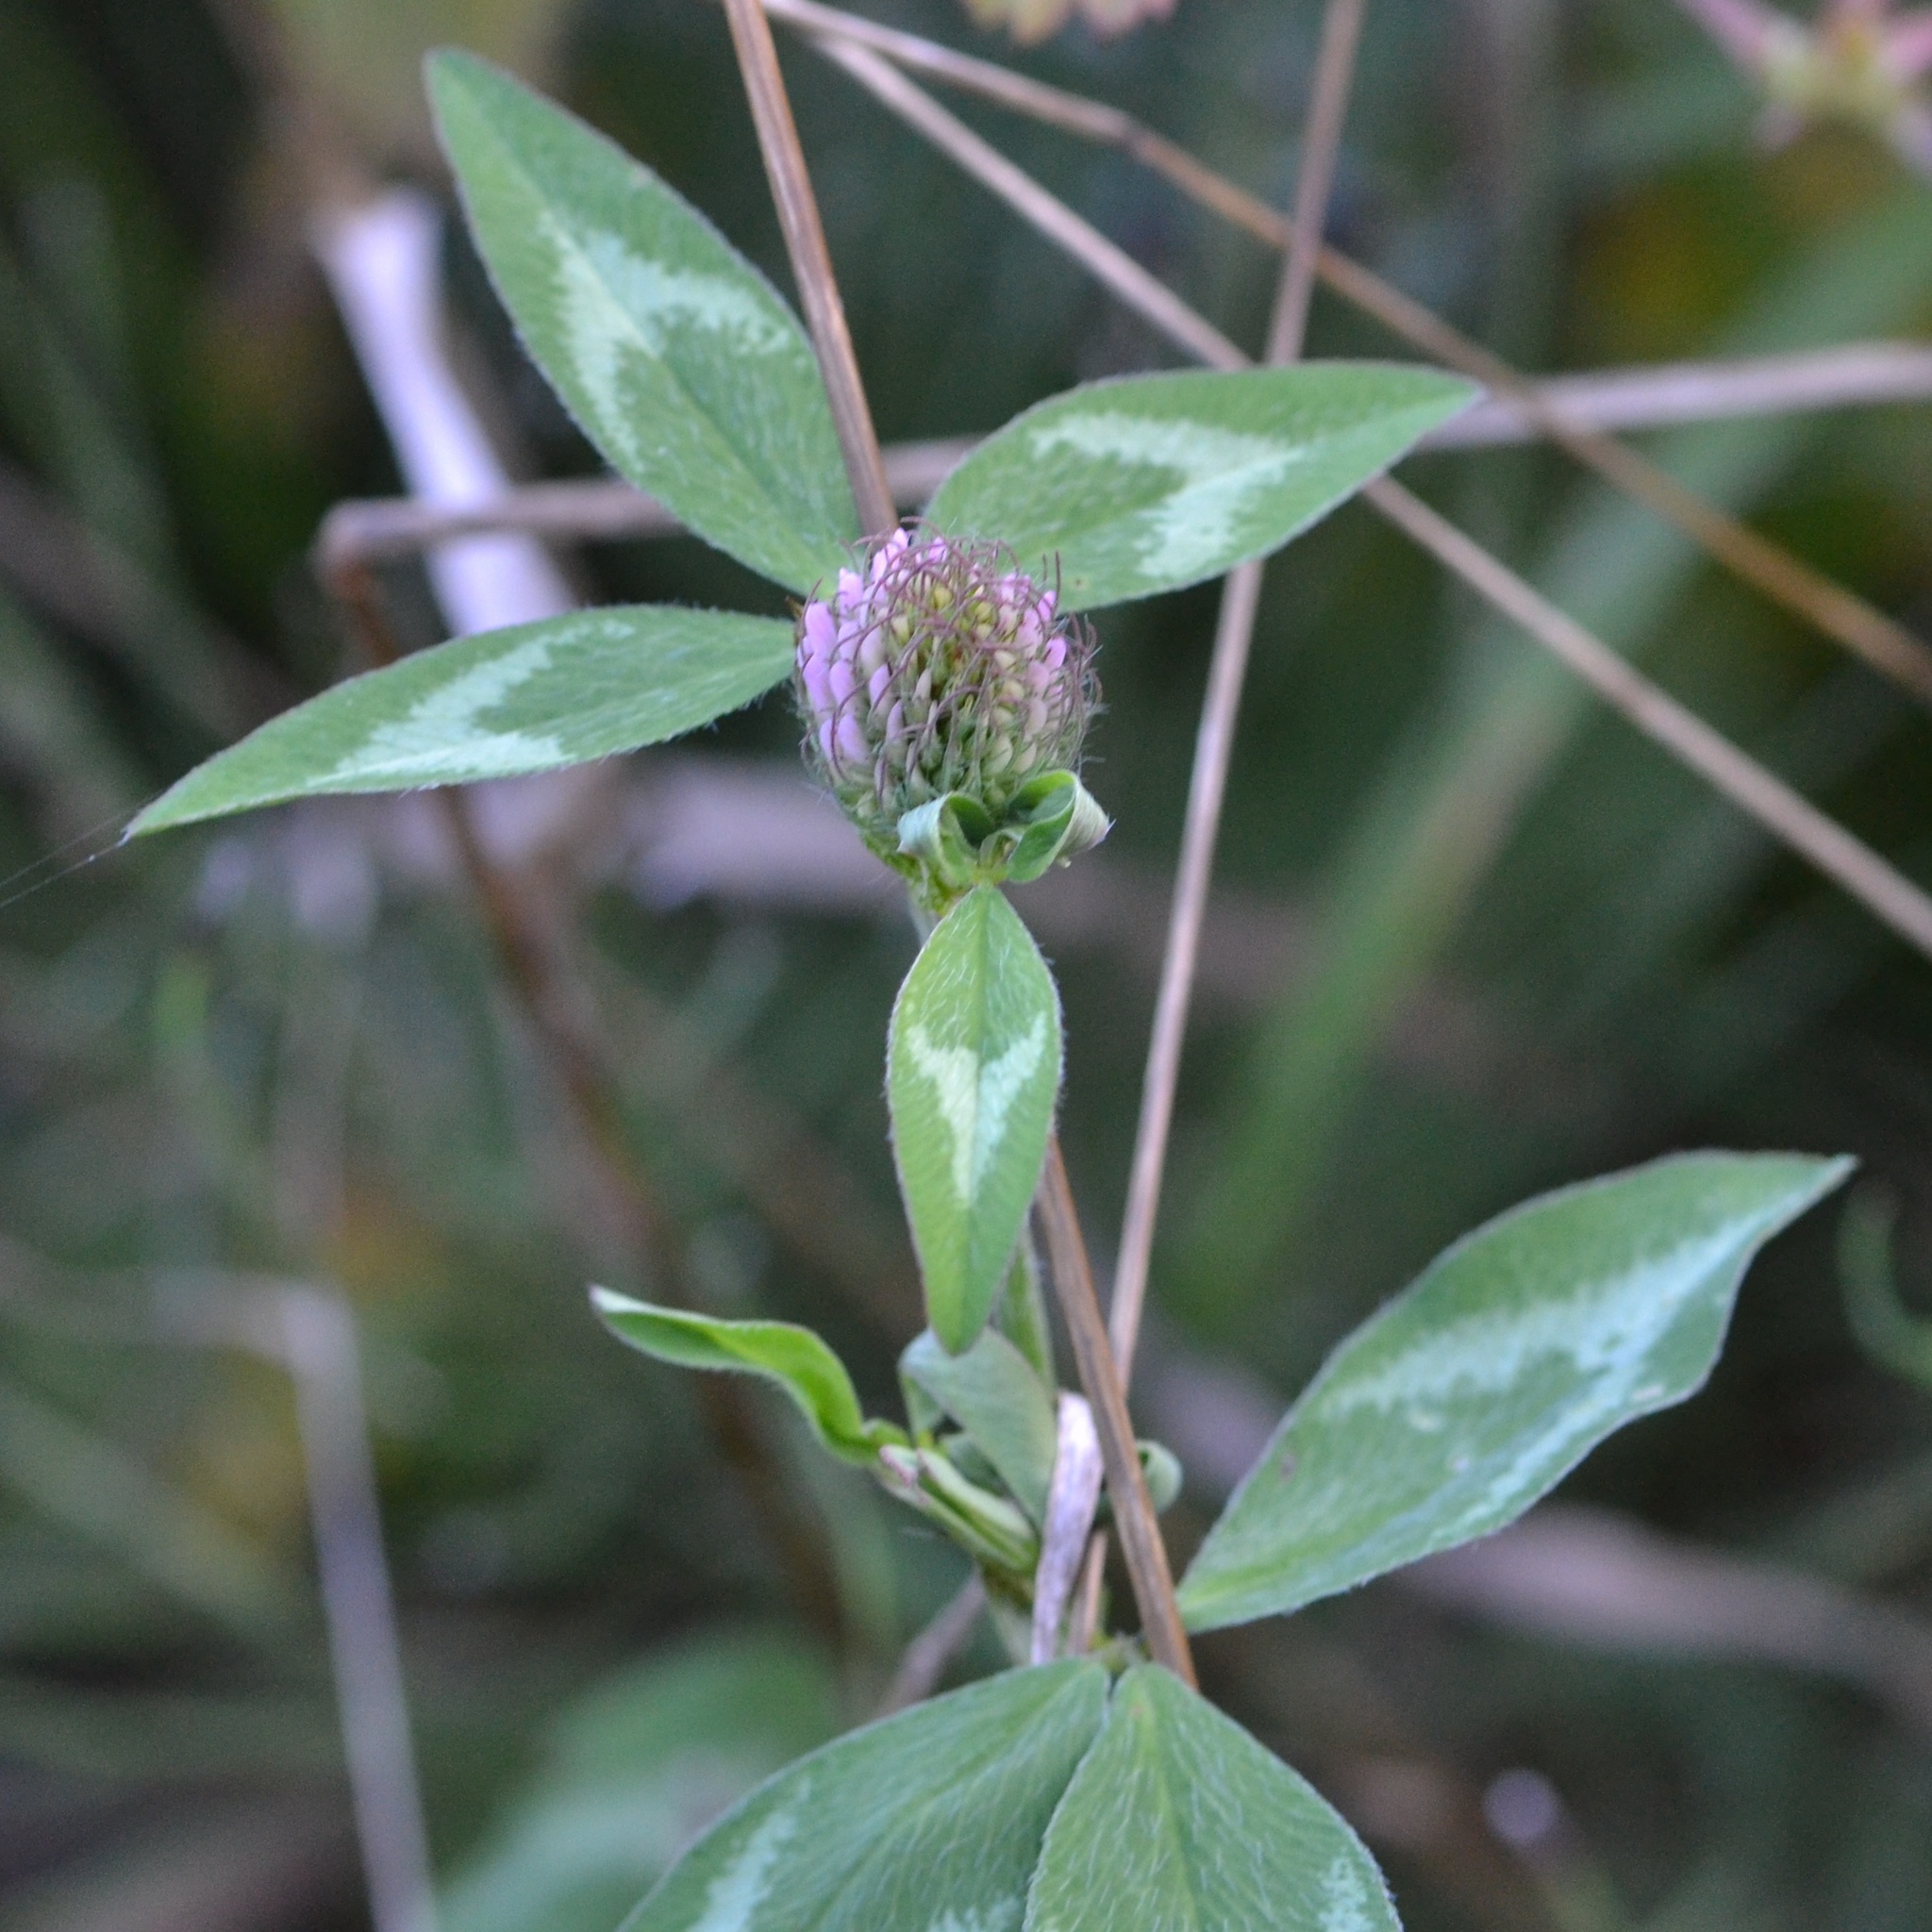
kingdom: Plantae
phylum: Tracheophyta
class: Magnoliopsida
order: Fabales
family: Fabaceae
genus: Trifolium
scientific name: Trifolium pratense
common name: Red clover
